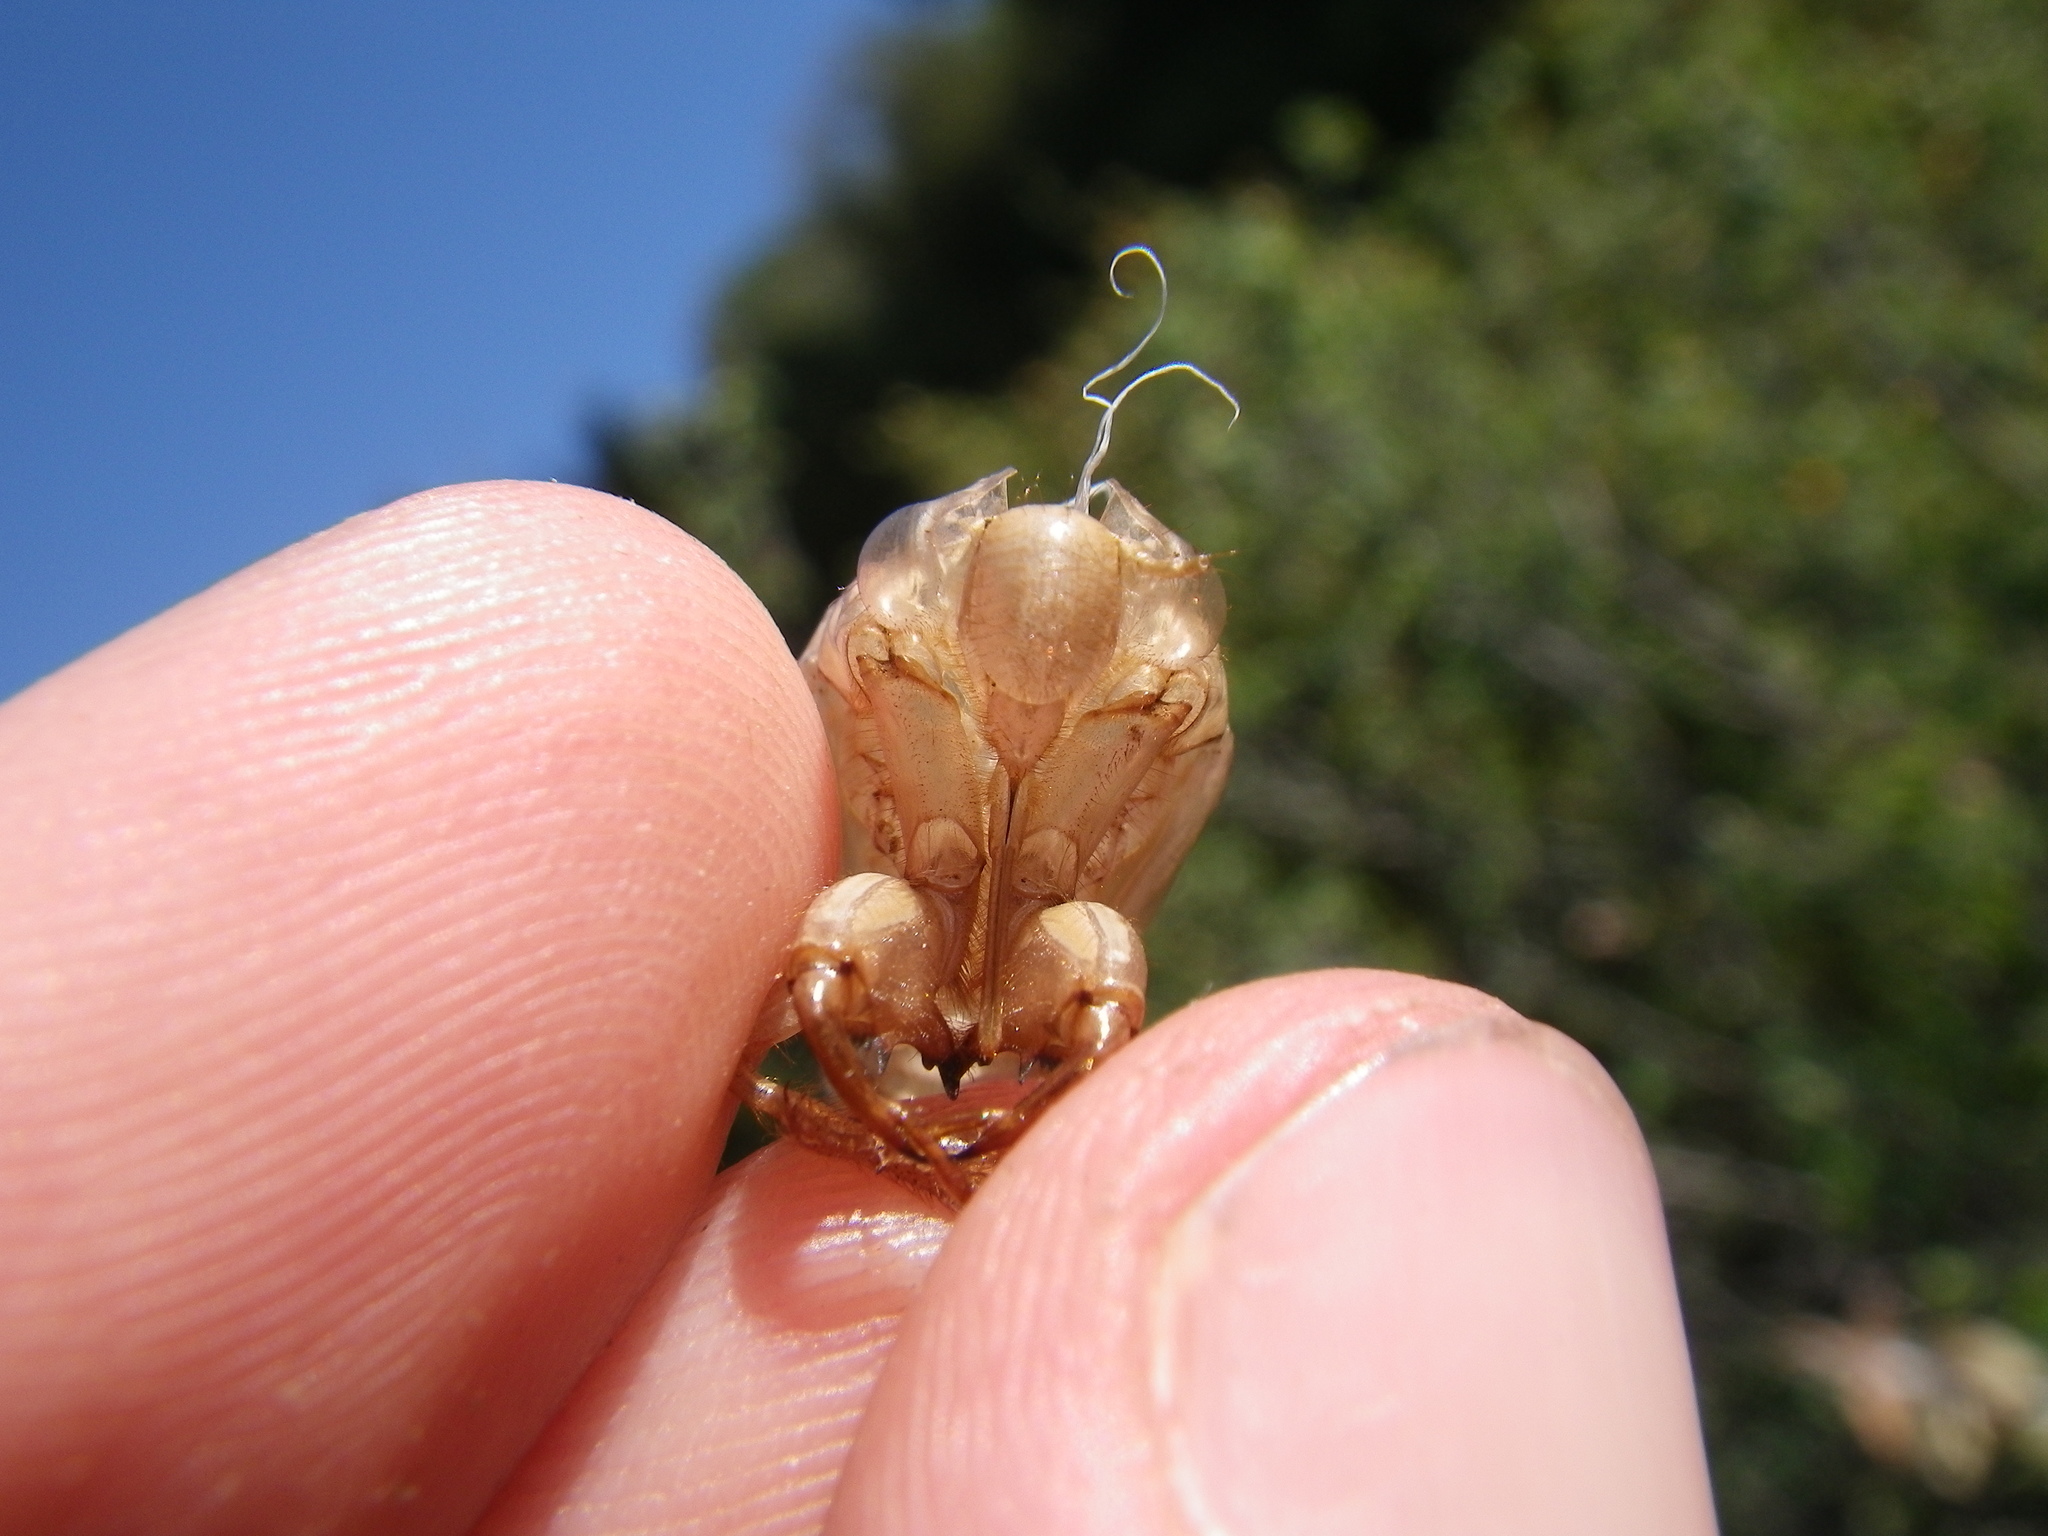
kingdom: Animalia
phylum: Arthropoda
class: Insecta
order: Hemiptera
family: Cicadidae
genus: Cicada
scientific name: Cicada orni
